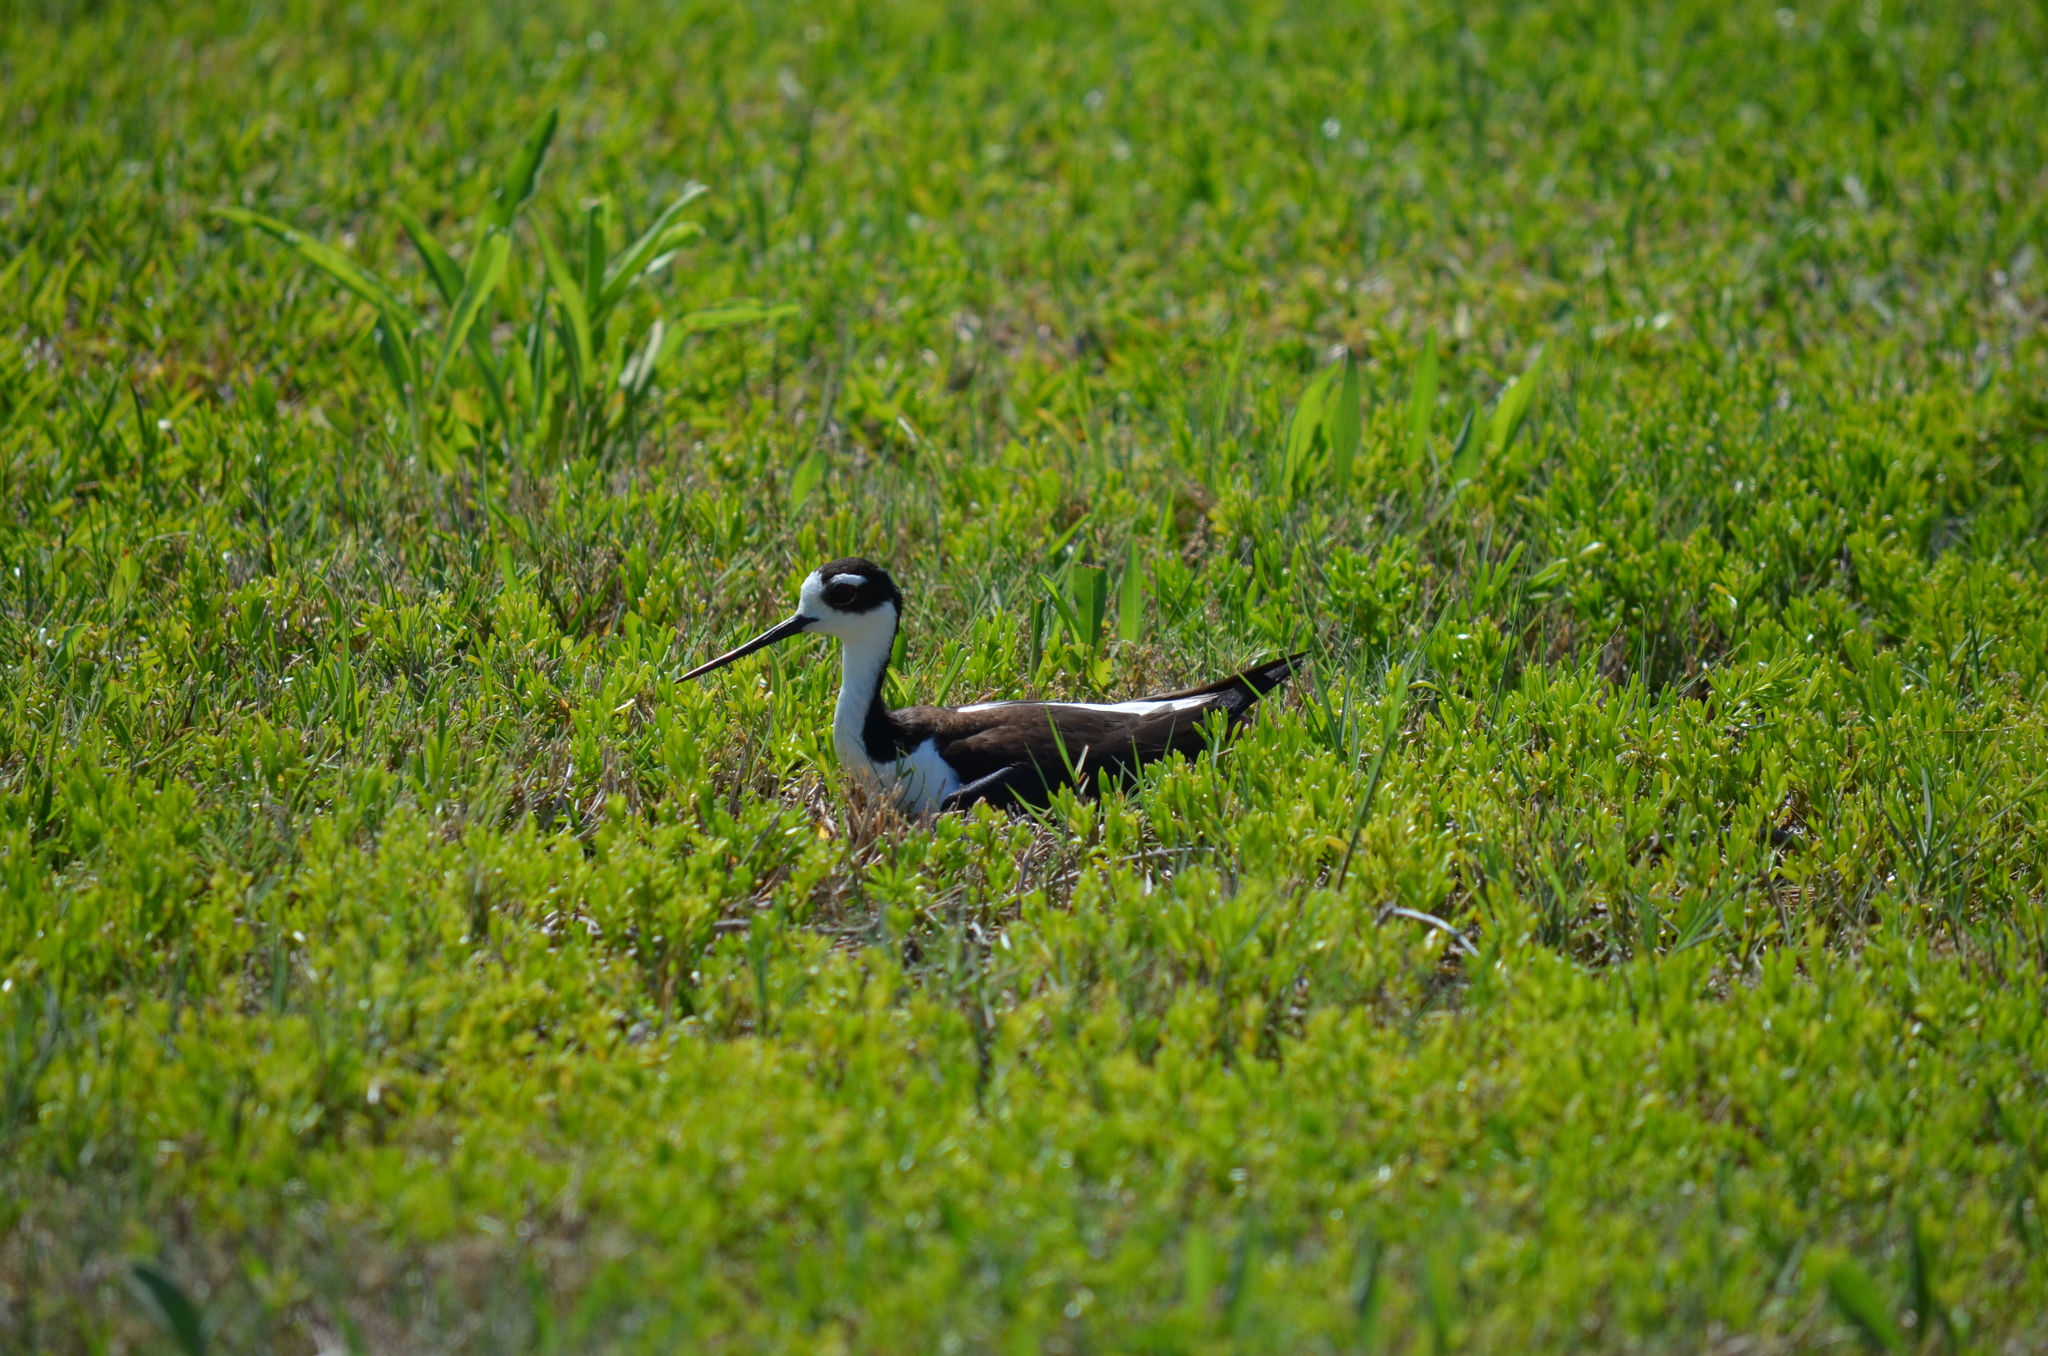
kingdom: Animalia
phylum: Chordata
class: Aves
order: Charadriiformes
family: Recurvirostridae
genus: Himantopus
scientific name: Himantopus mexicanus
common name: Black-necked stilt
